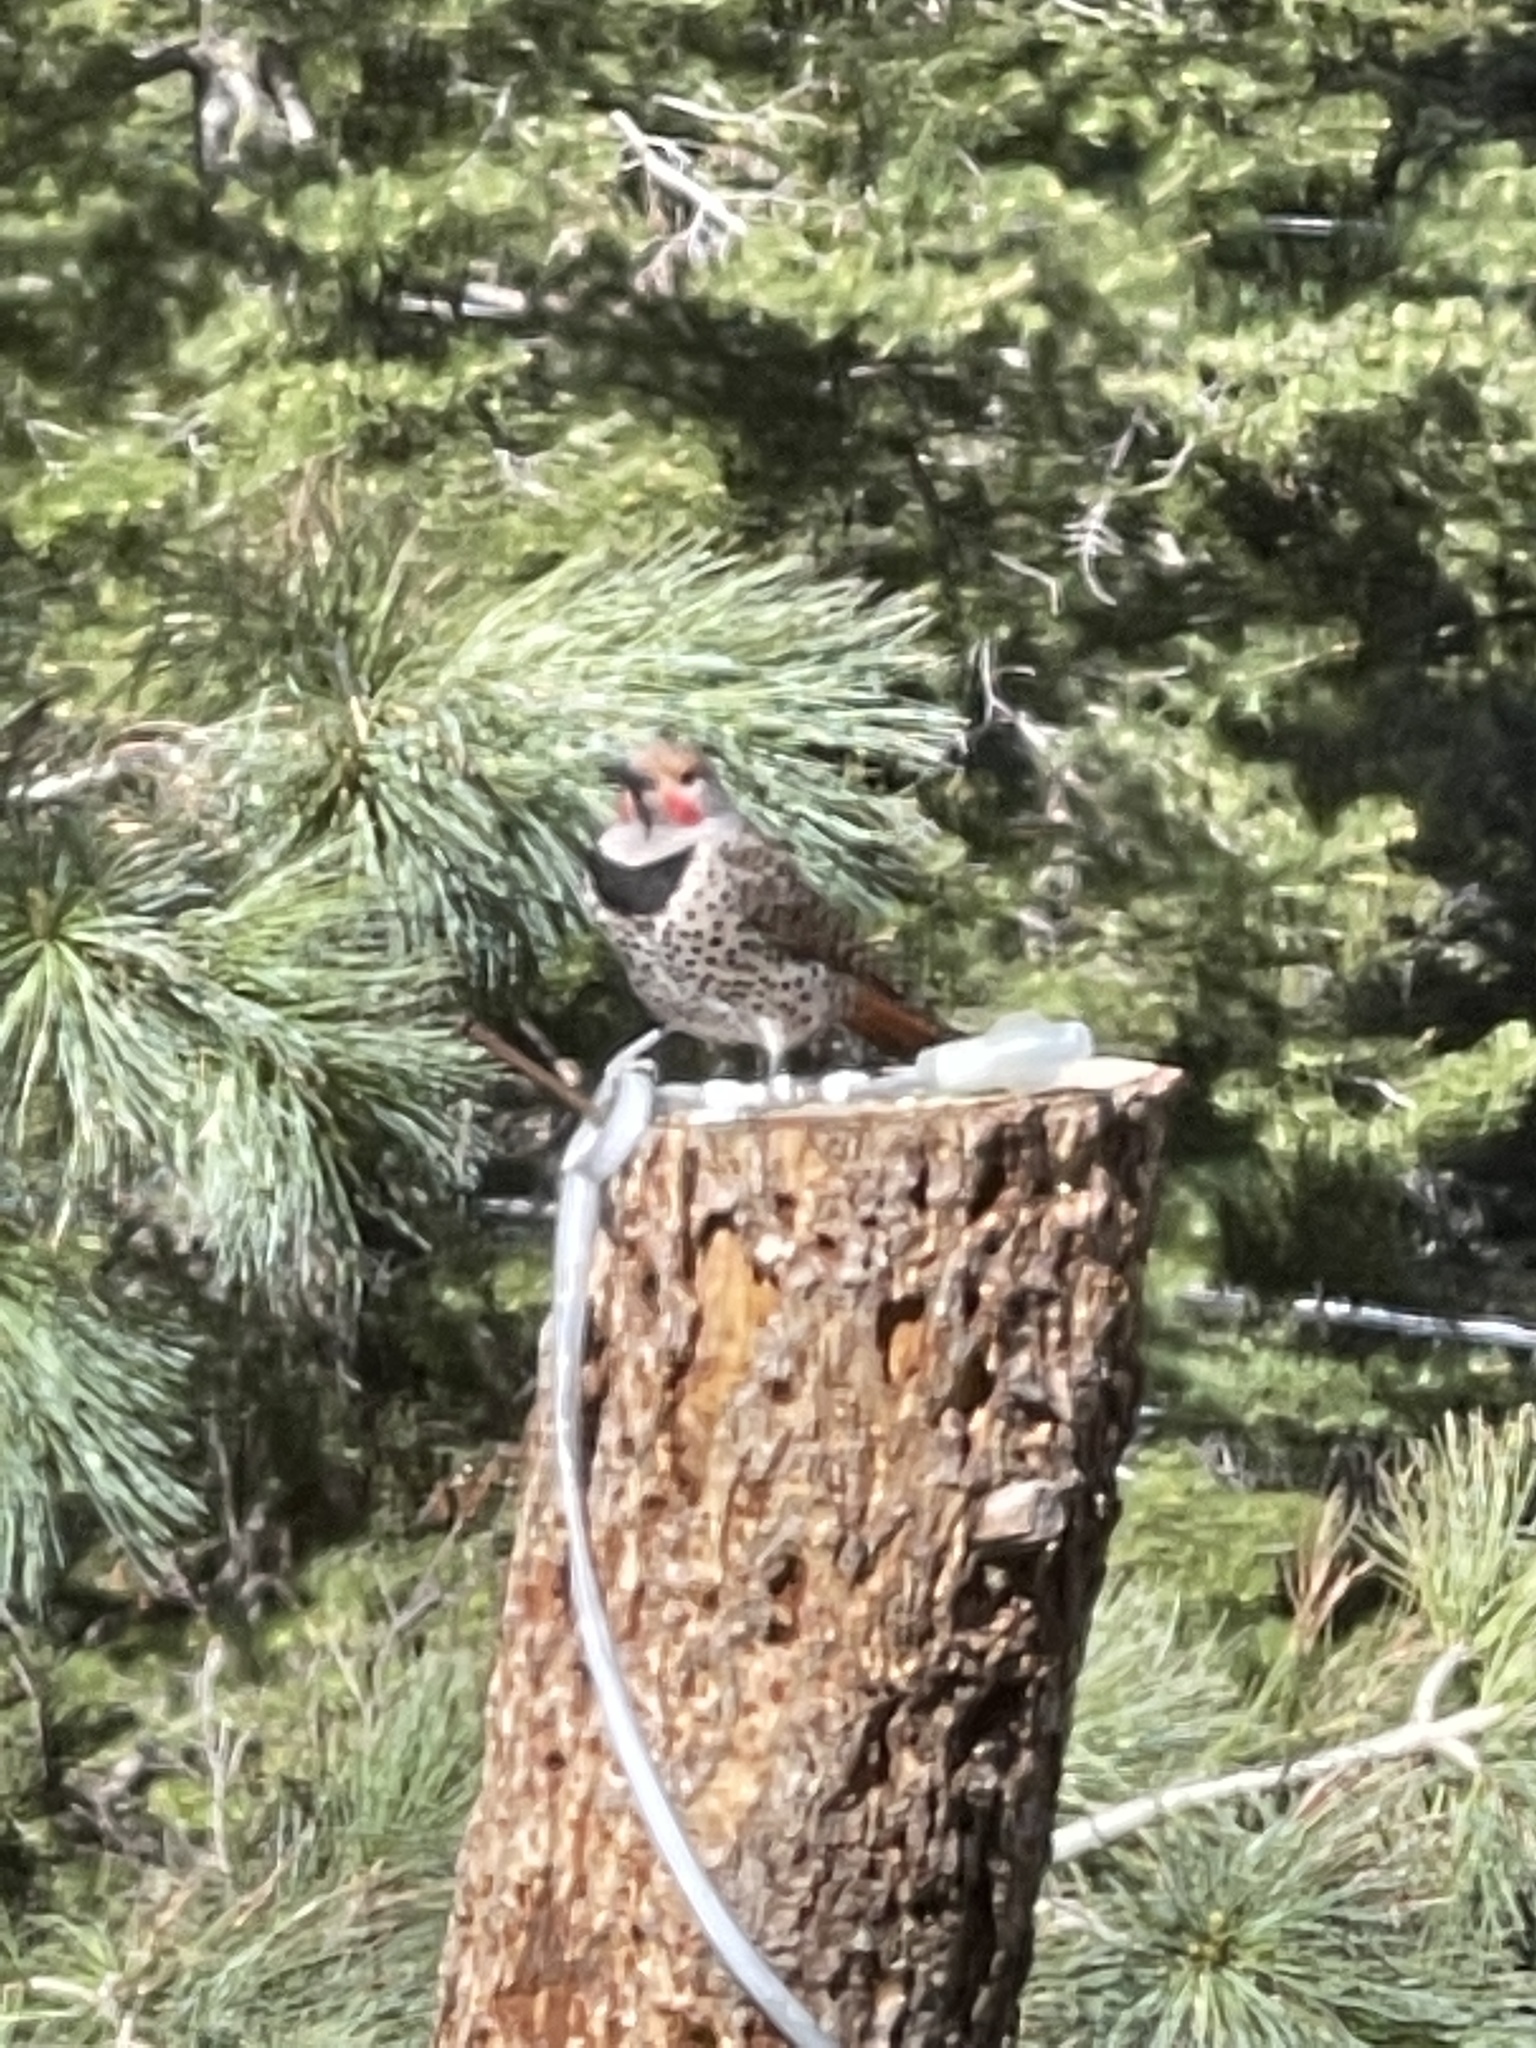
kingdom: Animalia
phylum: Chordata
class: Aves
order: Piciformes
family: Picidae
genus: Colaptes
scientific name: Colaptes auratus
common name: Northern flicker
